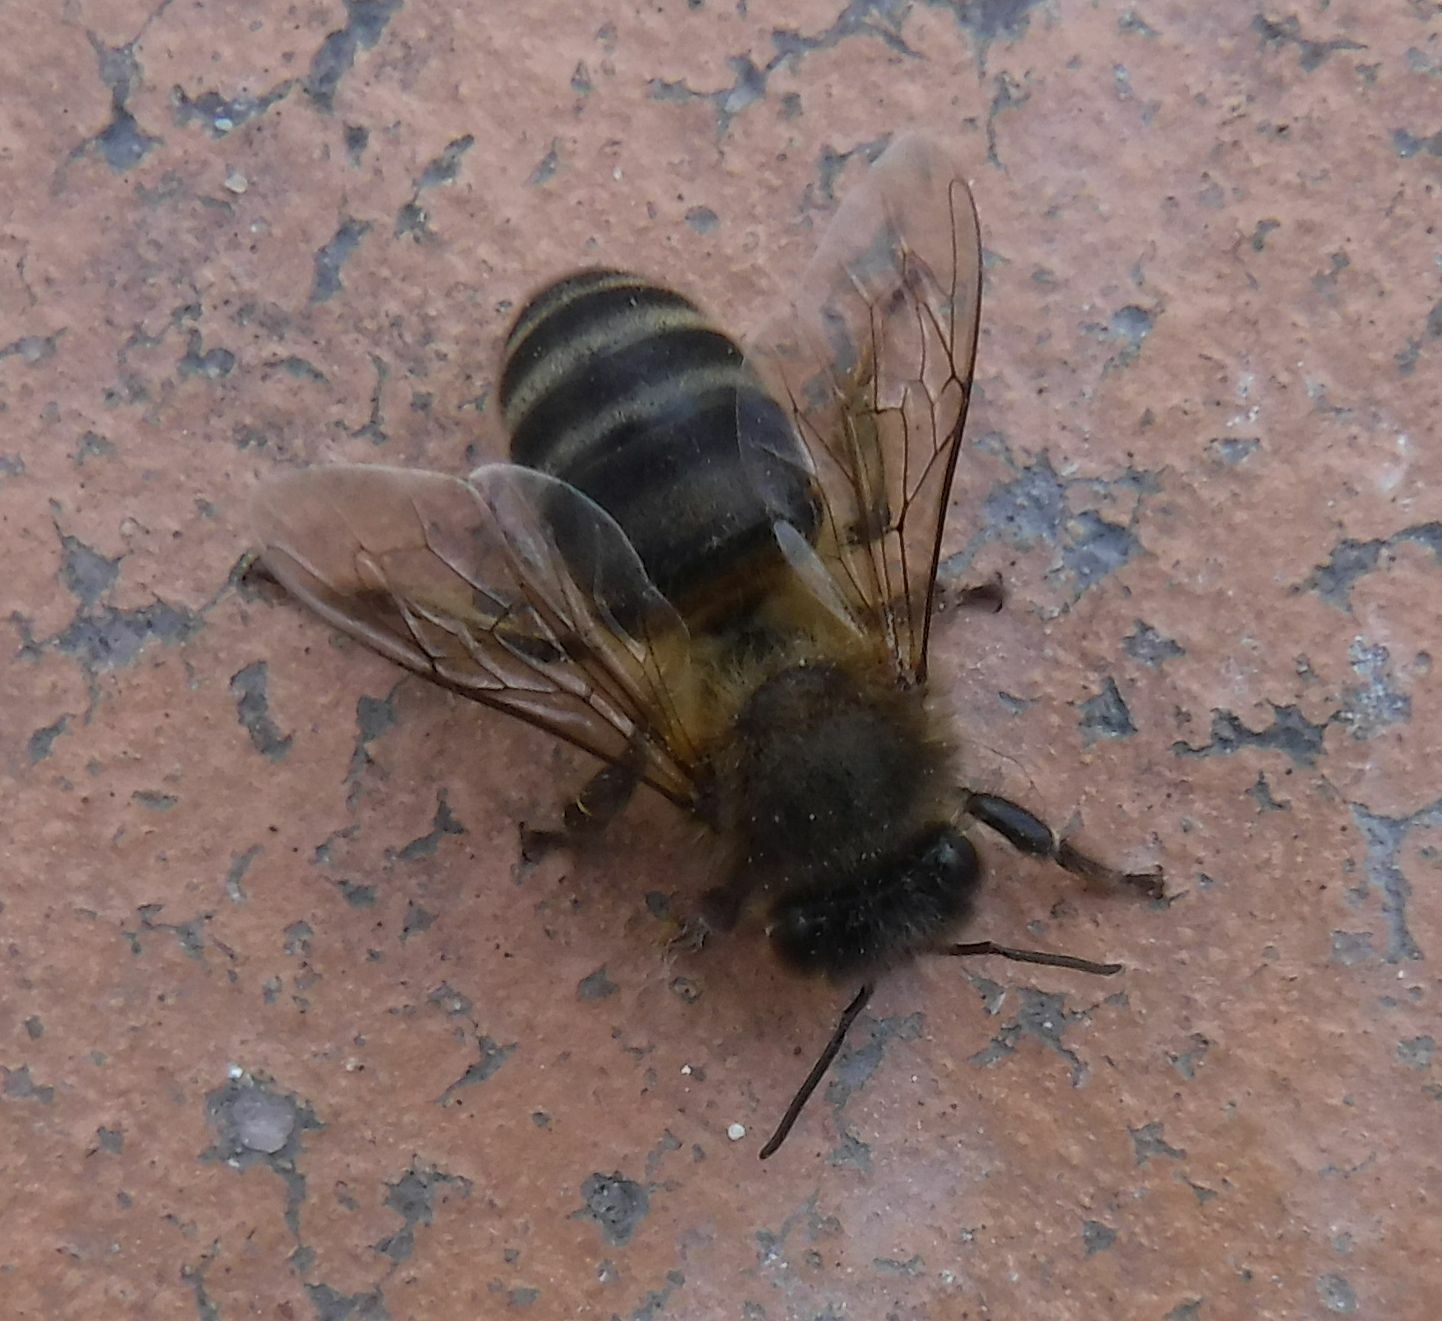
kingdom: Animalia
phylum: Arthropoda
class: Insecta
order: Hymenoptera
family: Apidae
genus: Apis
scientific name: Apis mellifera
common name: Honey bee
